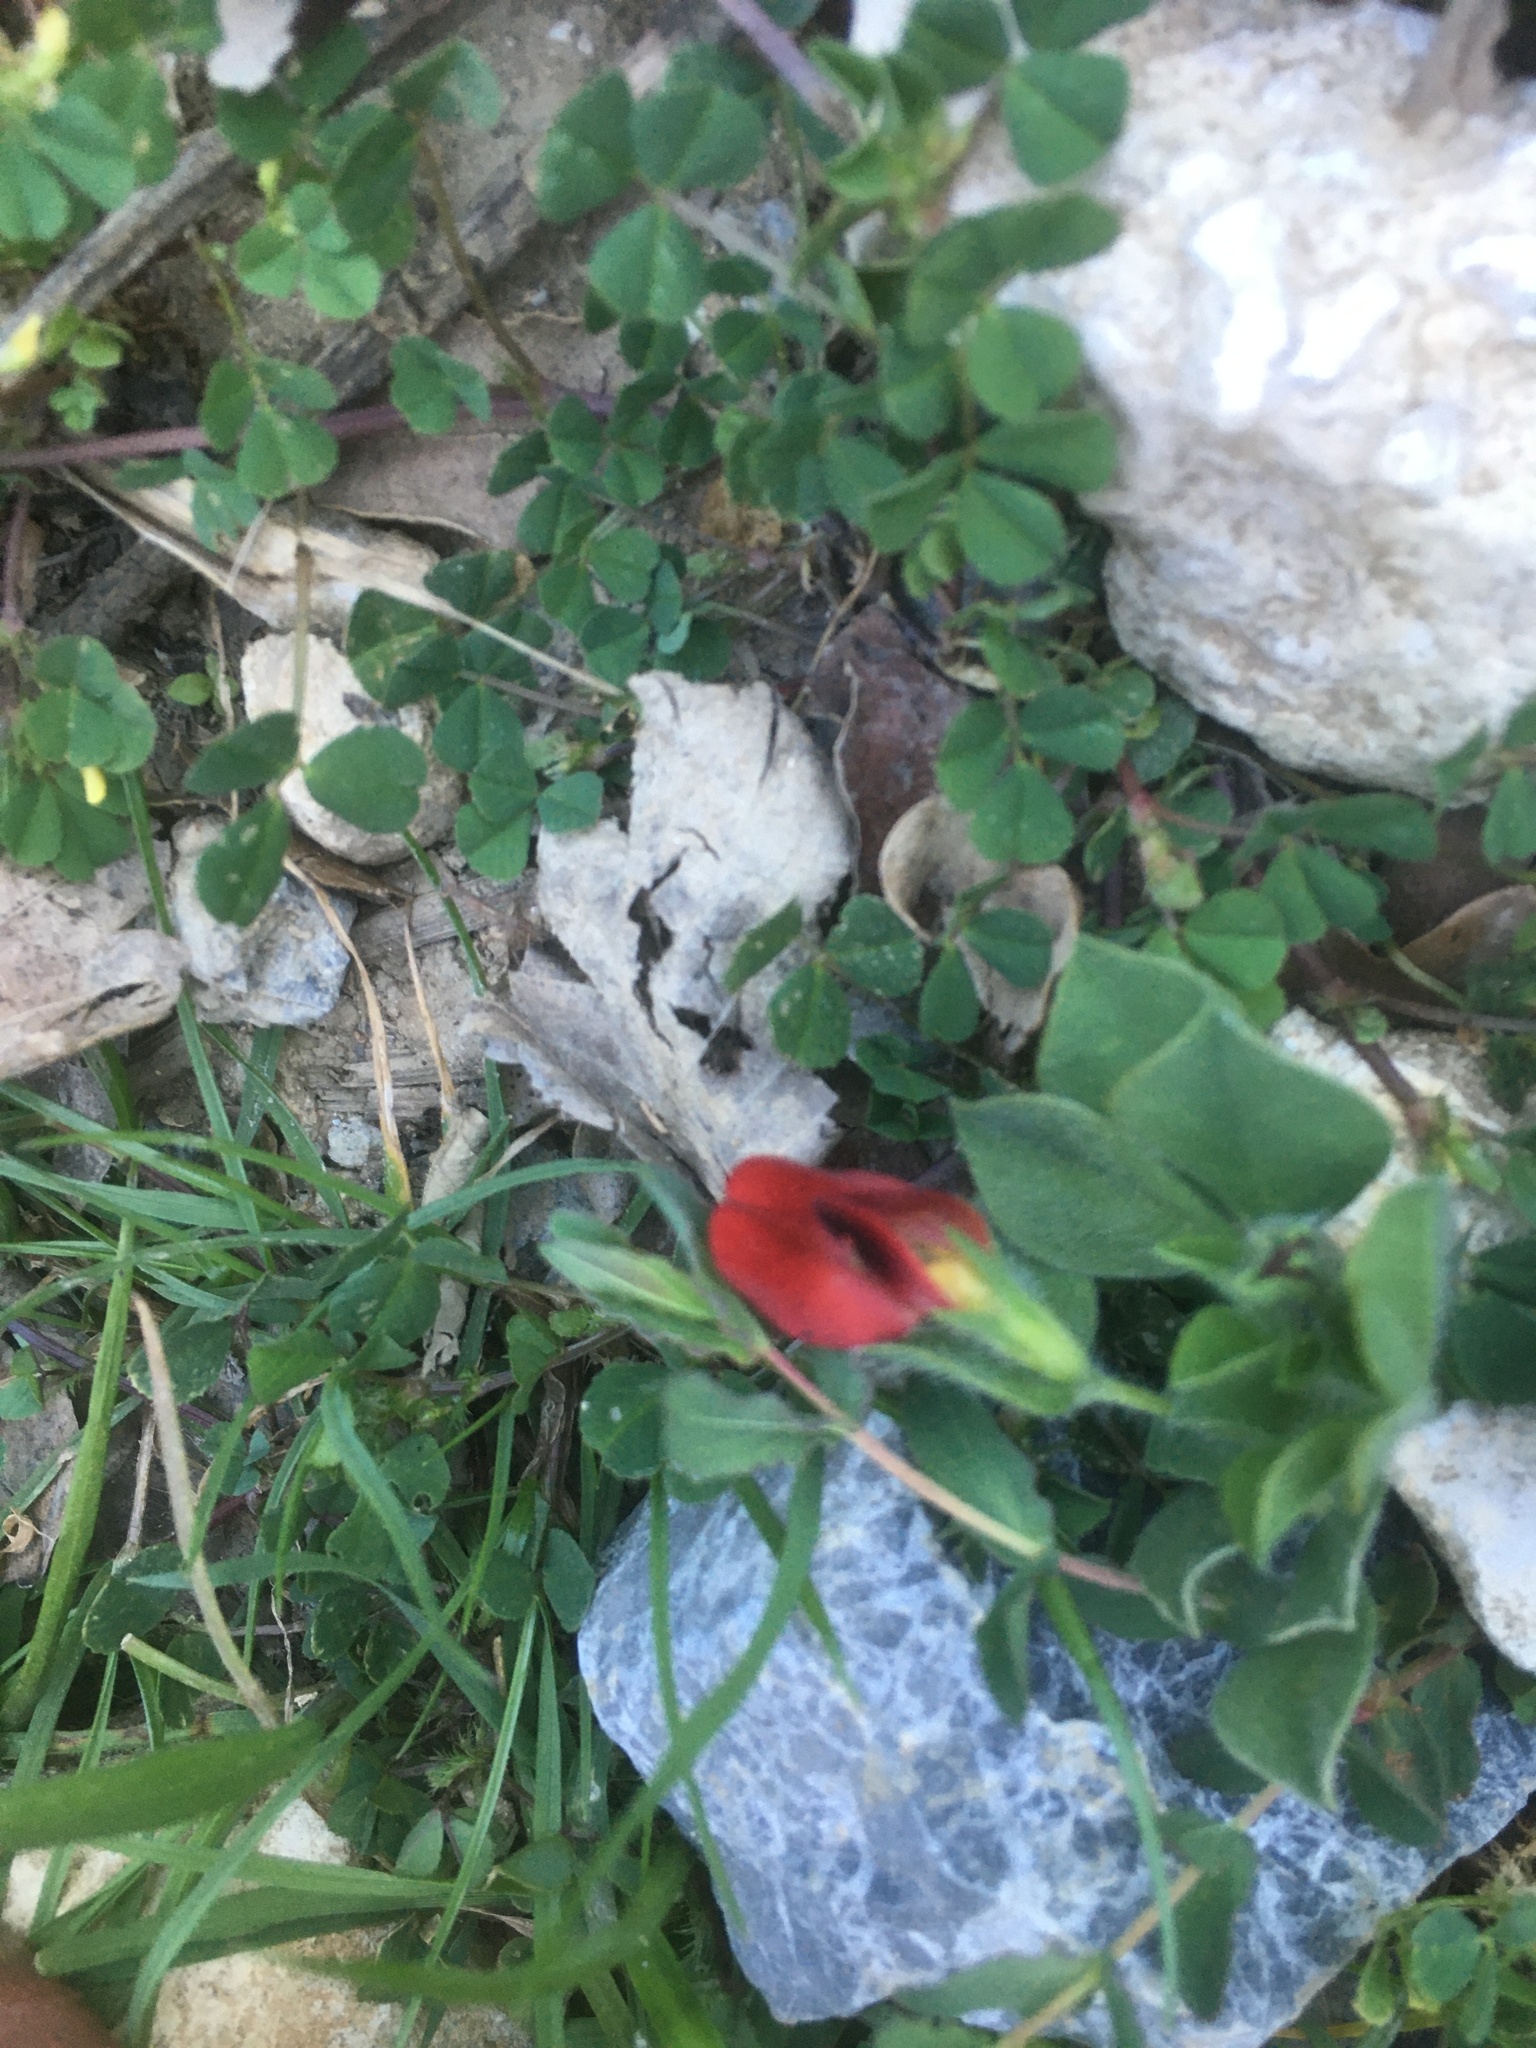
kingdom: Plantae
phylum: Tracheophyta
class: Magnoliopsida
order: Fabales
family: Fabaceae
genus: Lotus
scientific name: Lotus tetragonolobus
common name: Asparagus-pea
